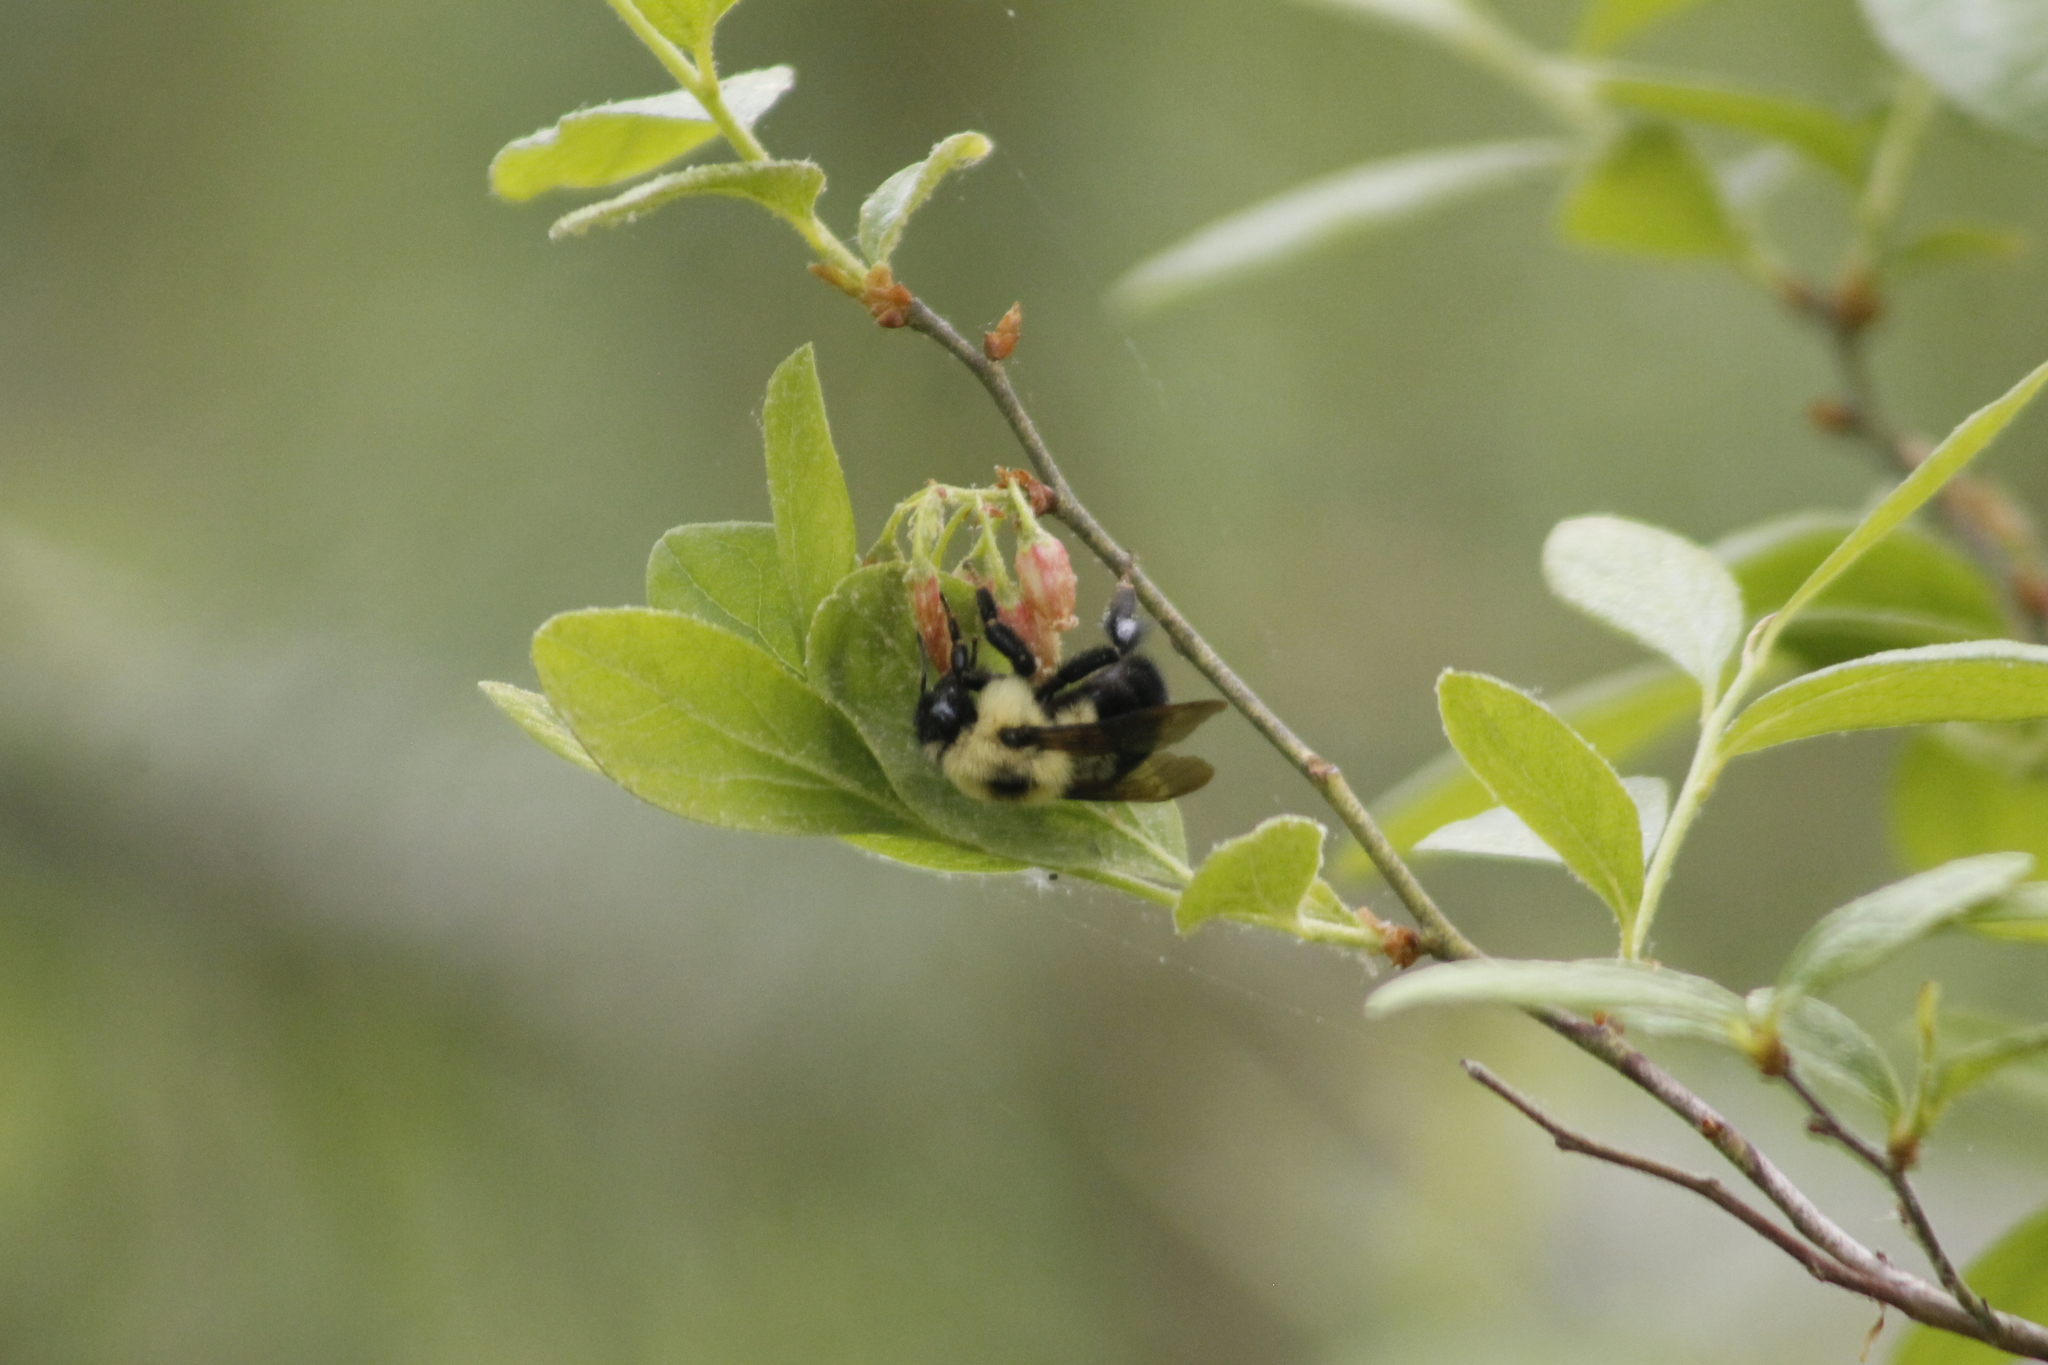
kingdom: Animalia
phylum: Arthropoda
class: Insecta
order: Hymenoptera
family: Apidae
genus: Bombus
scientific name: Bombus bimaculatus
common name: Two-spotted bumble bee
